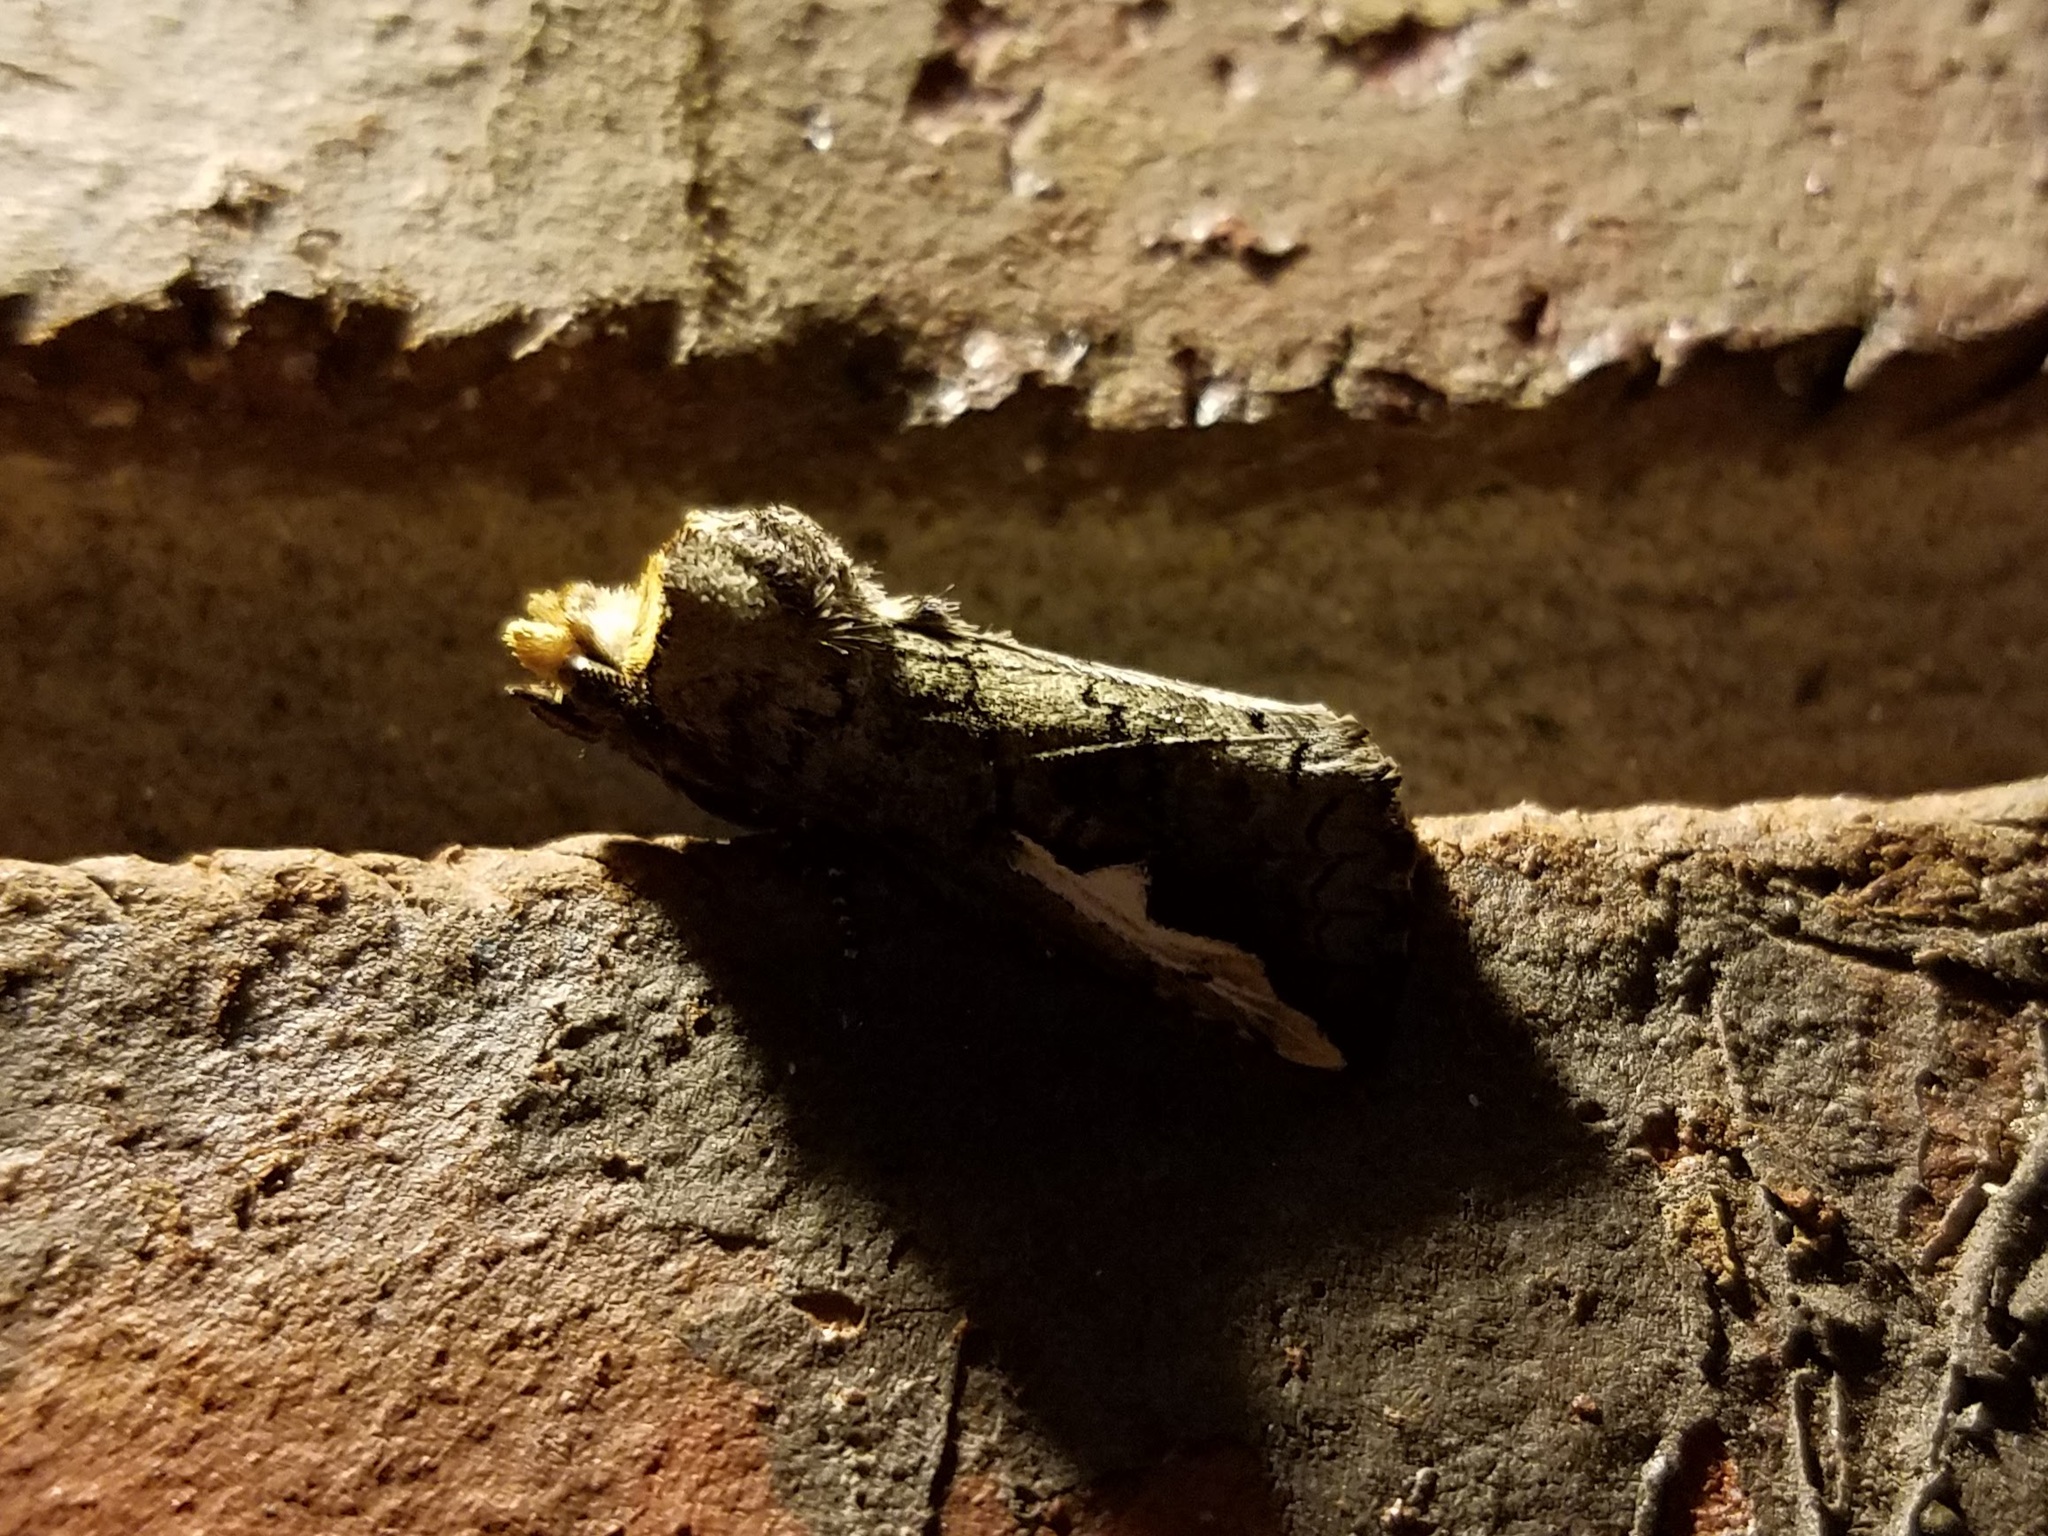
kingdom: Animalia
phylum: Arthropoda
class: Insecta
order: Lepidoptera
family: Notodontidae
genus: Symmerista
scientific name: Symmerista
